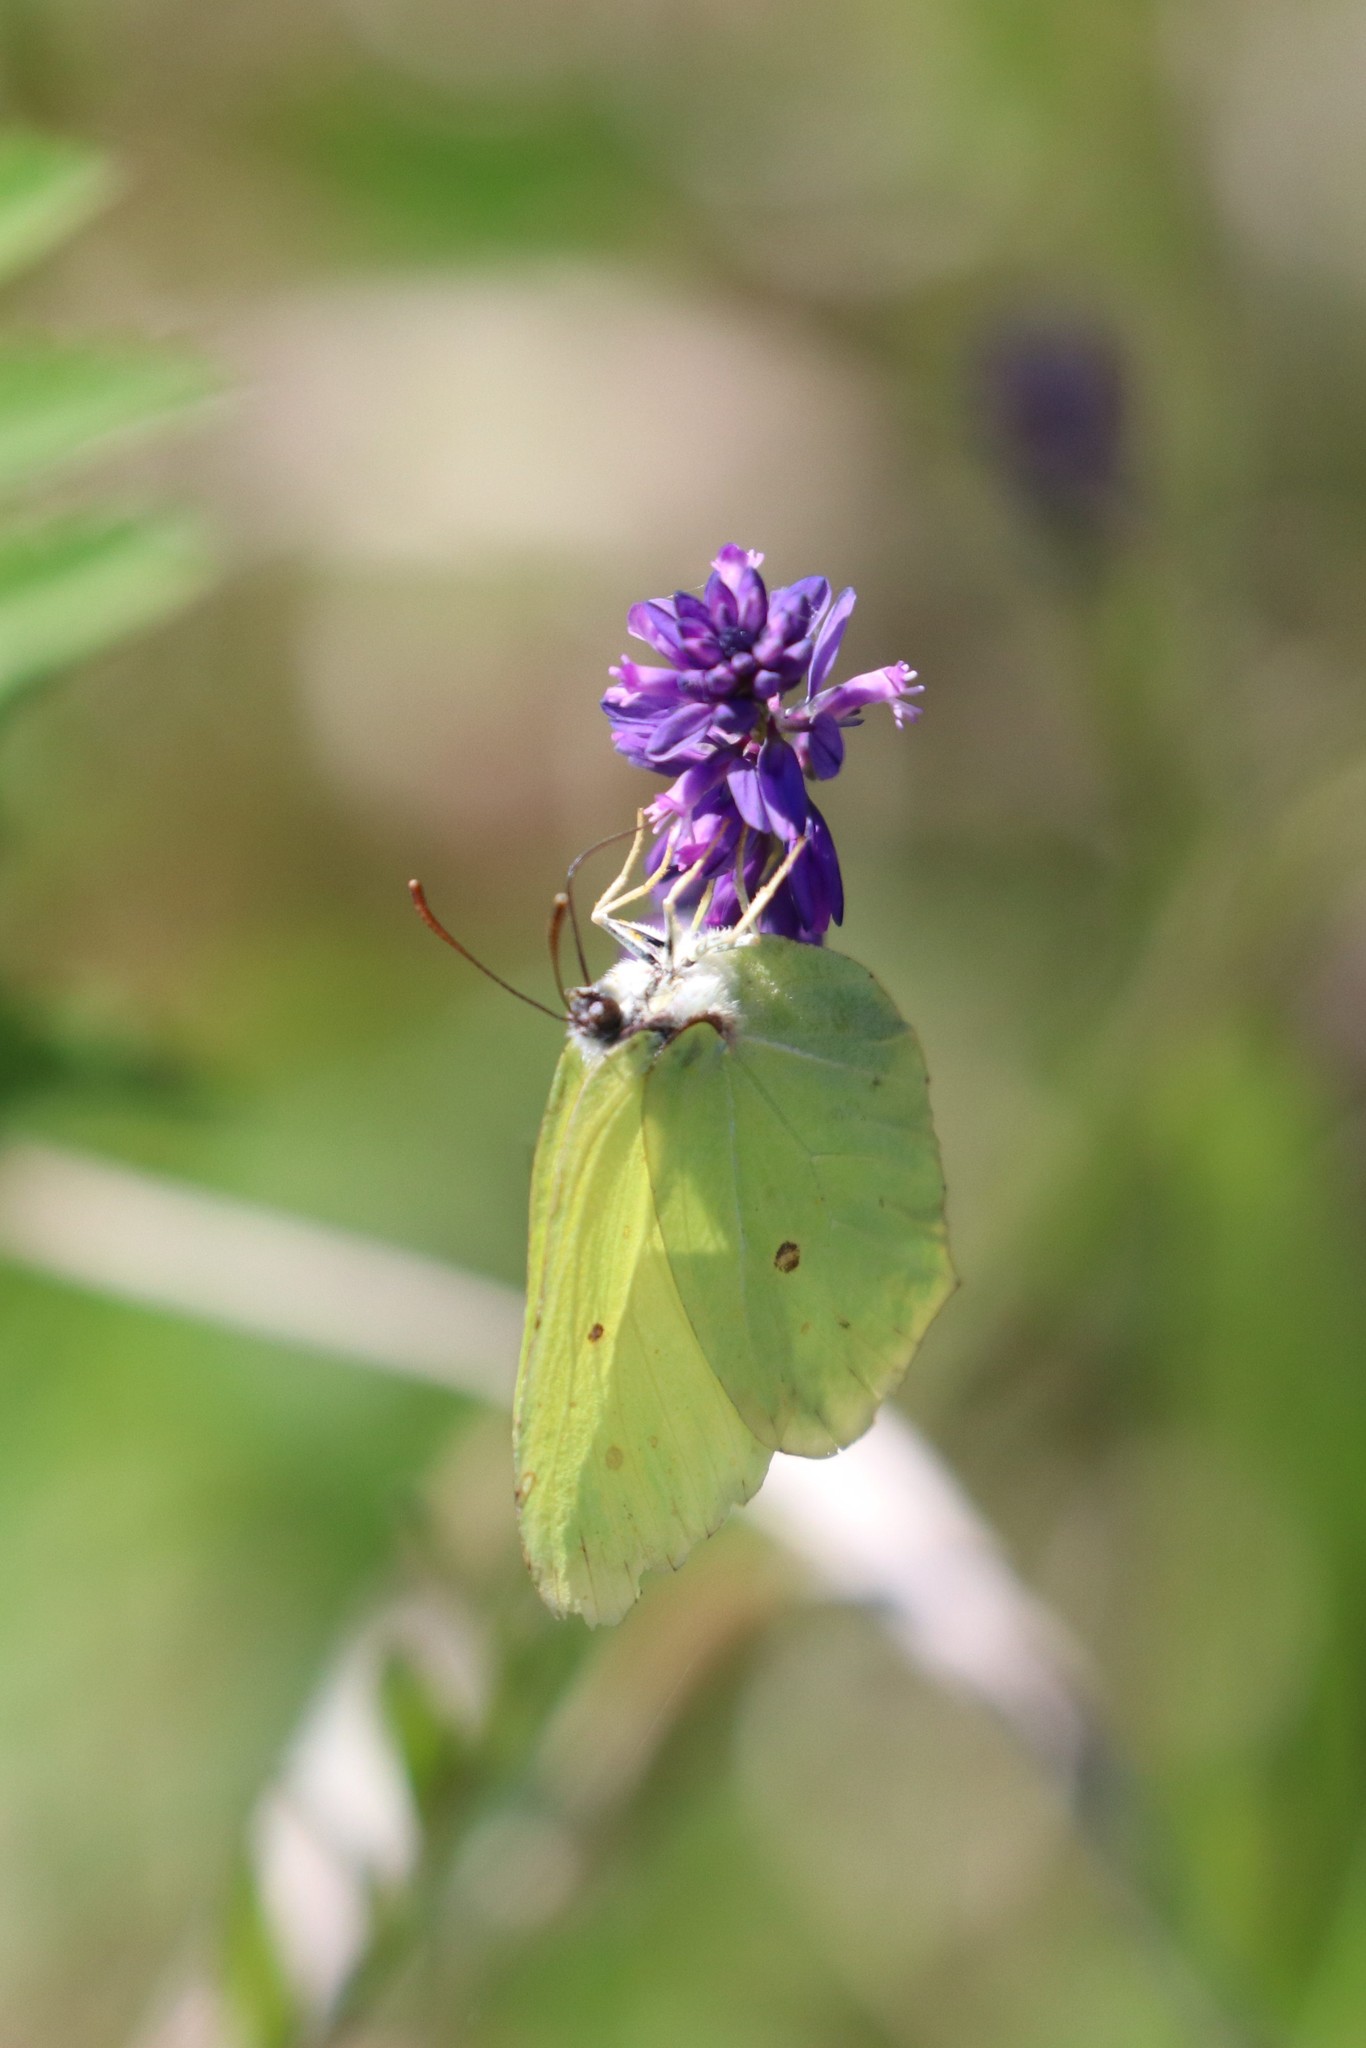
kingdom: Animalia
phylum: Arthropoda
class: Insecta
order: Lepidoptera
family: Pieridae
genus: Gonepteryx
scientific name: Gonepteryx rhamni
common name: Brimstone
